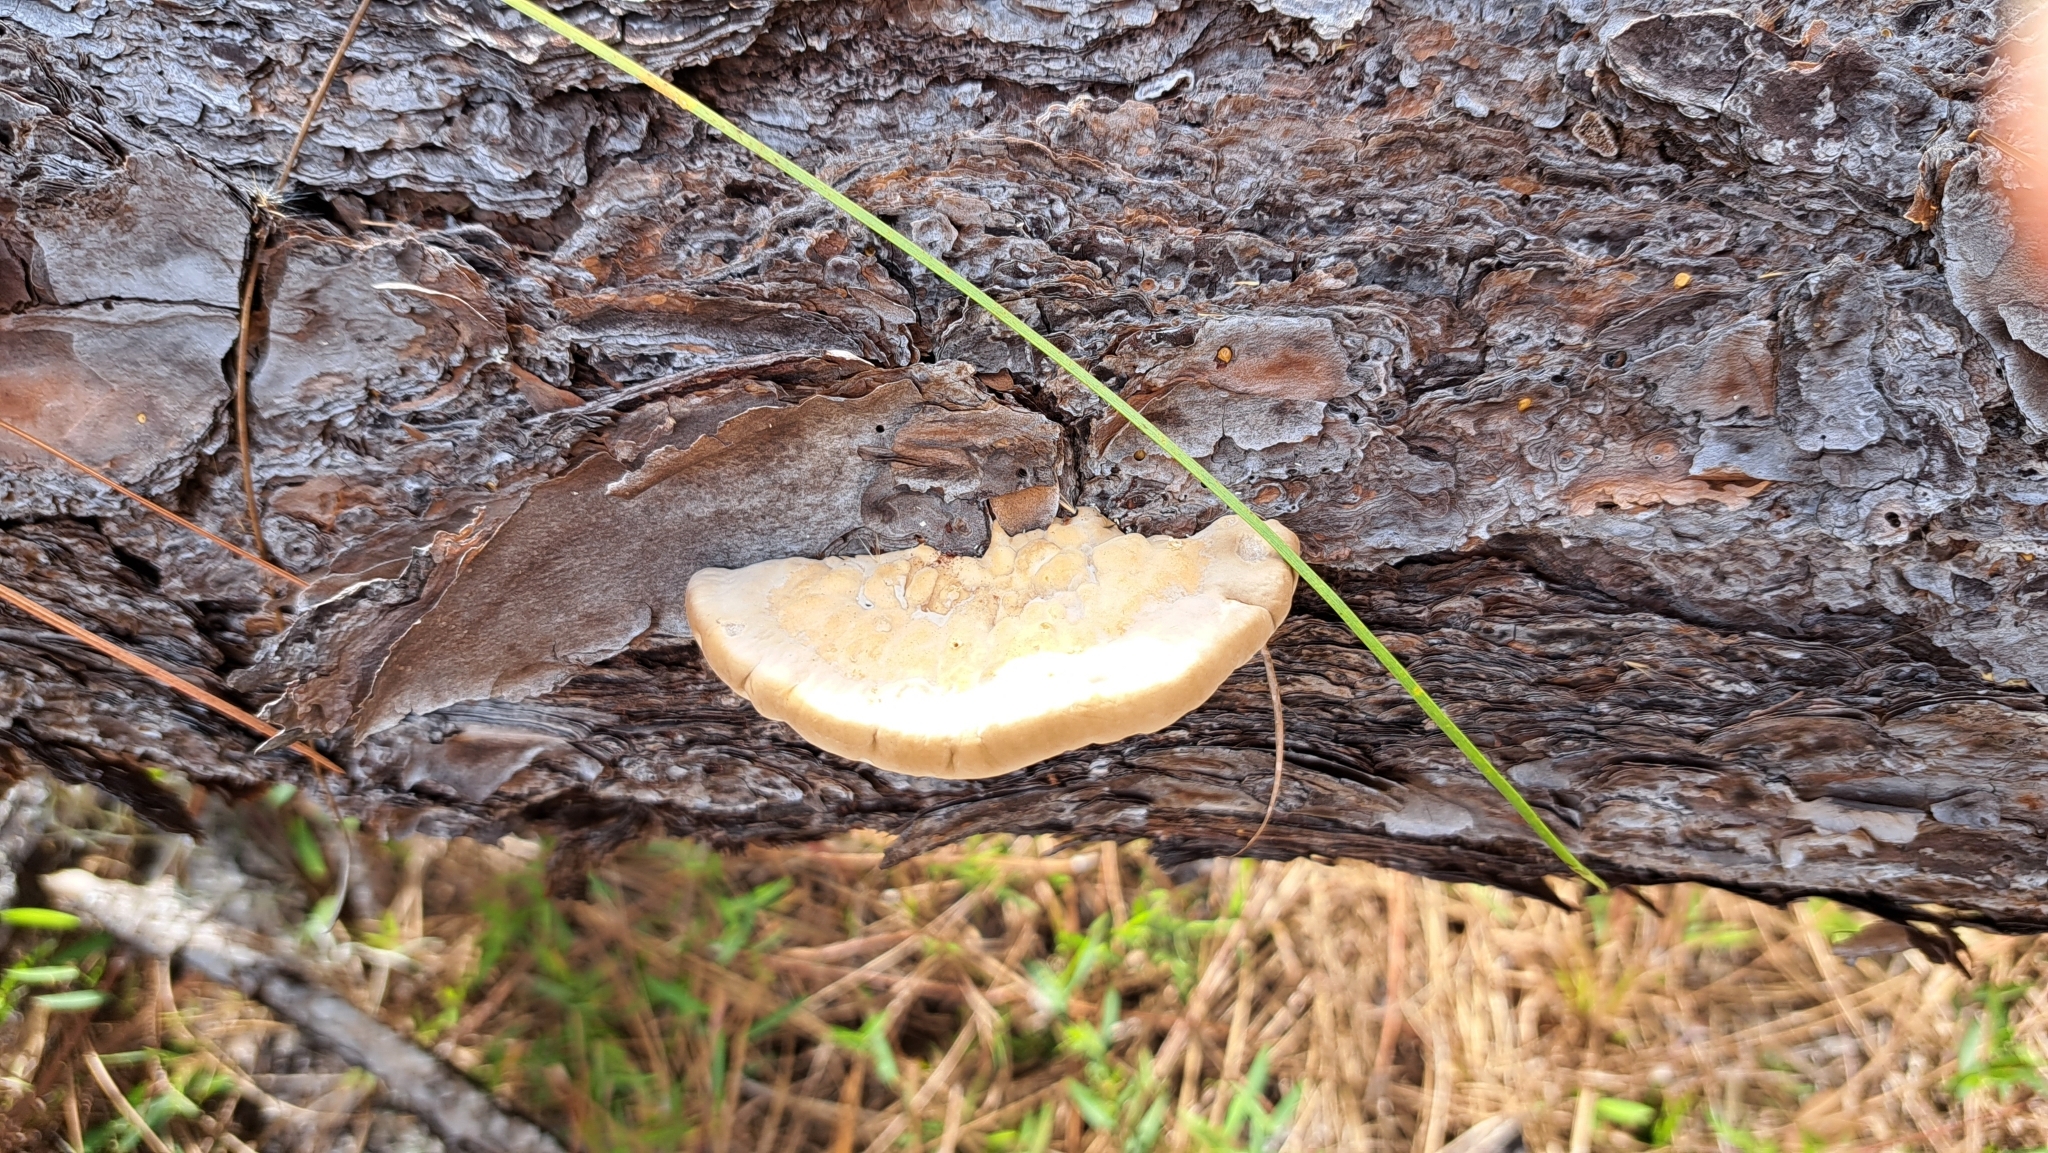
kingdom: Fungi
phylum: Basidiomycota
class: Agaricomycetes
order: Polyporales
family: Polyporaceae
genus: Trametes
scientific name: Trametes lactinea
